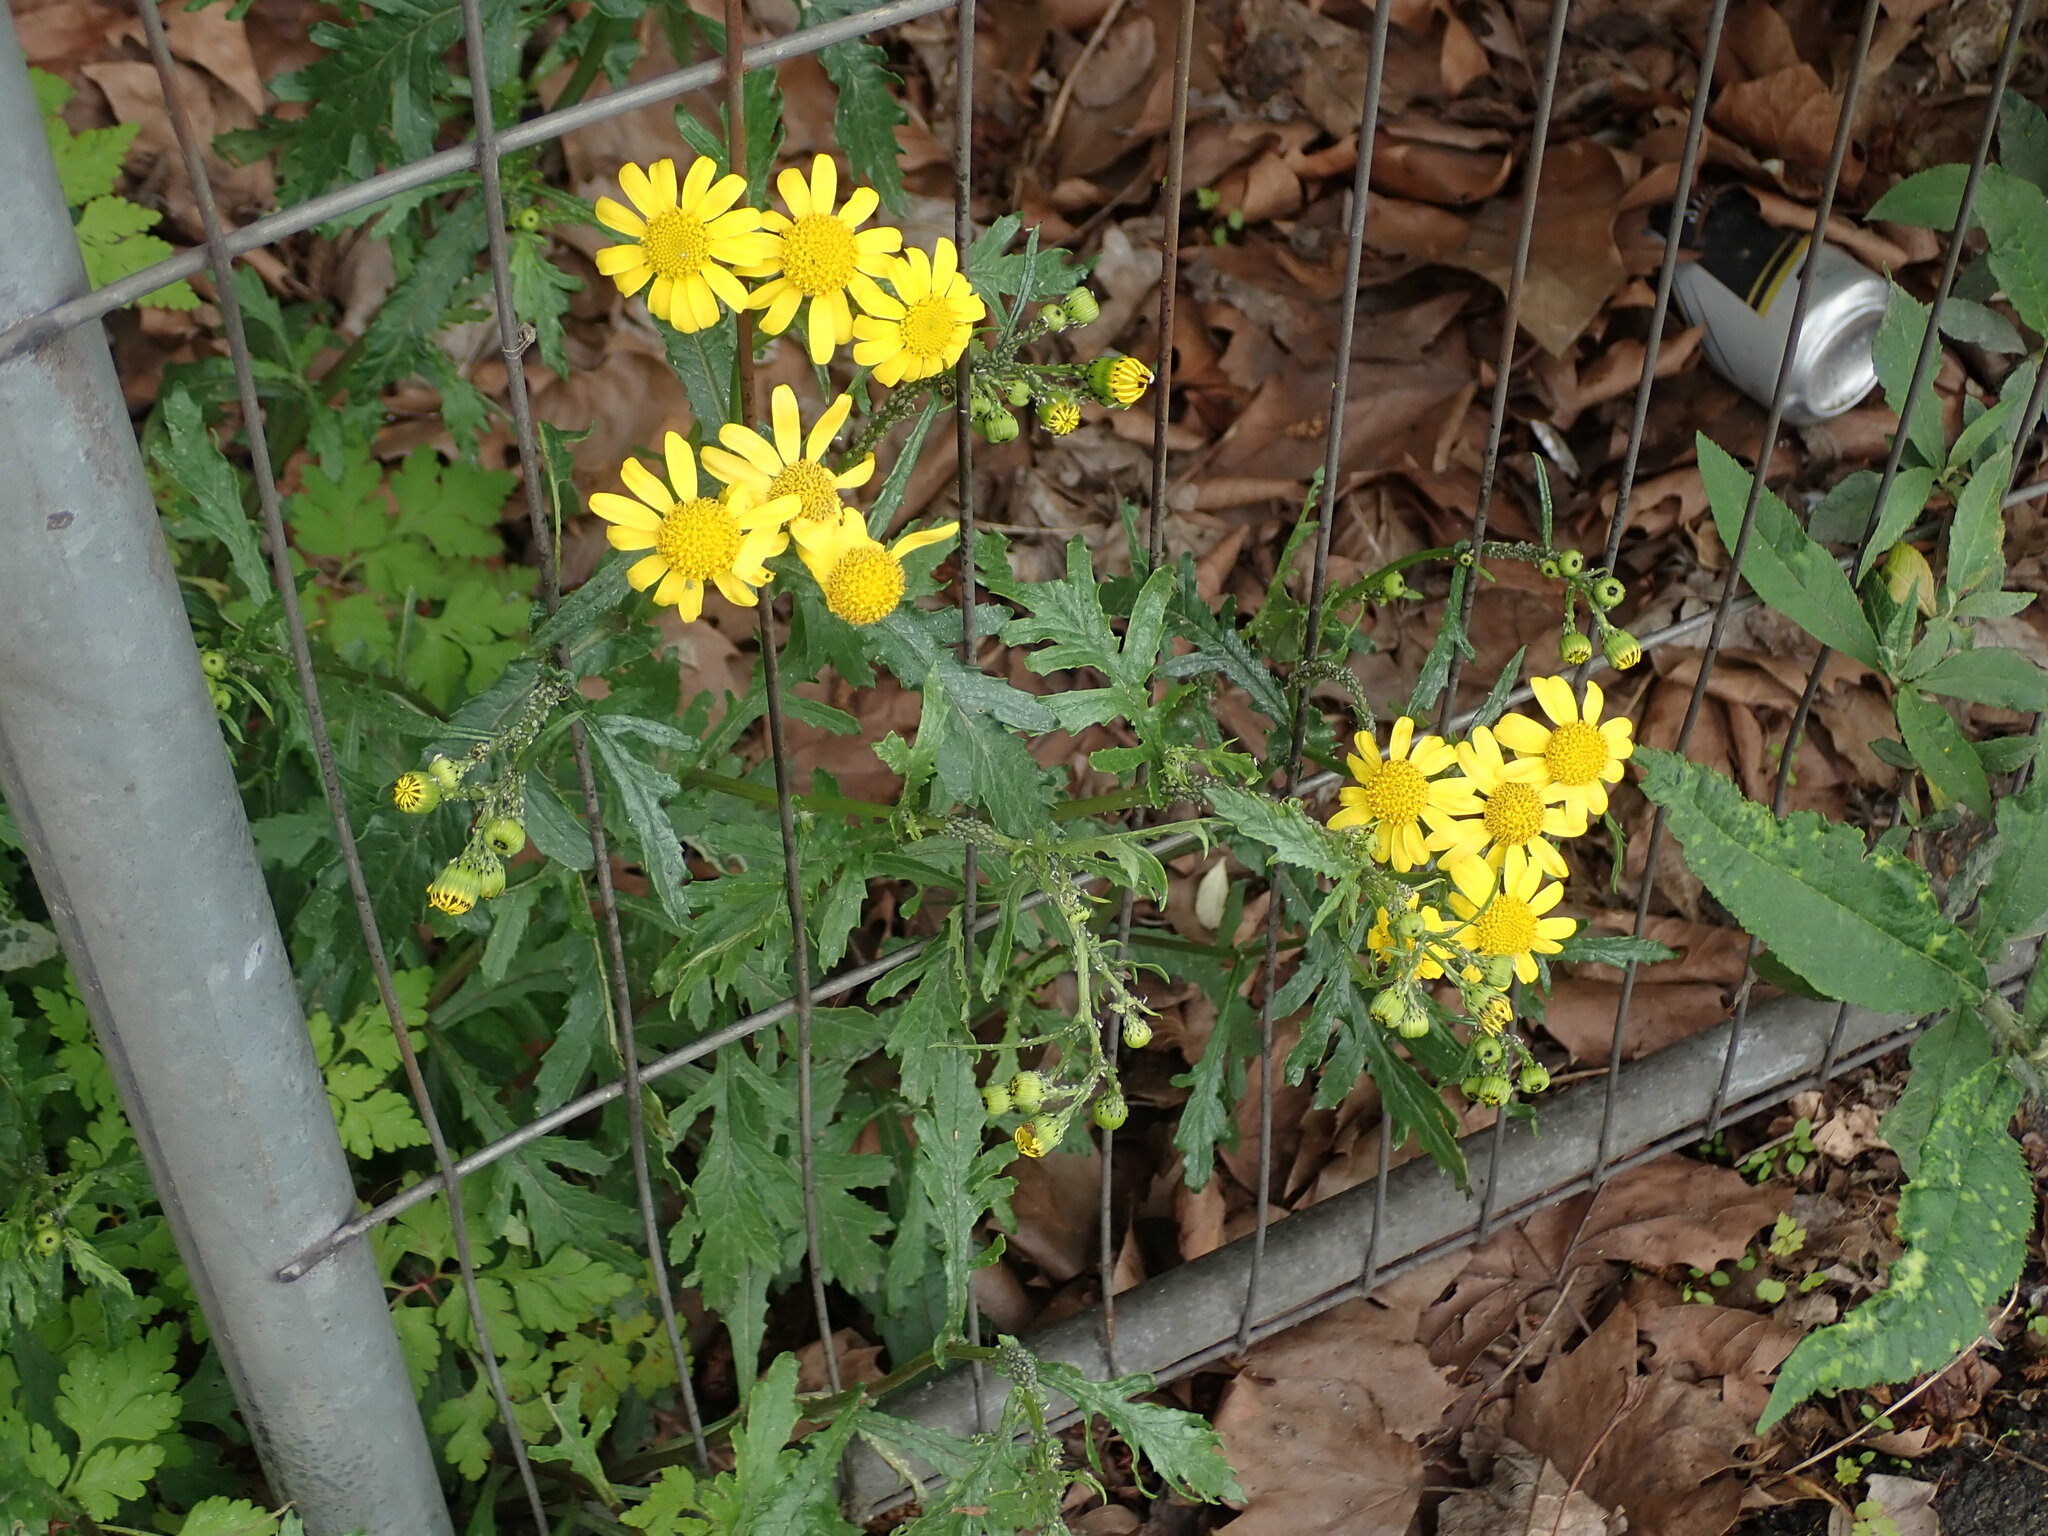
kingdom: Plantae
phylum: Tracheophyta
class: Magnoliopsida
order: Asterales
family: Asteraceae
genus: Senecio
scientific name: Senecio squalidus
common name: Oxford ragwort
